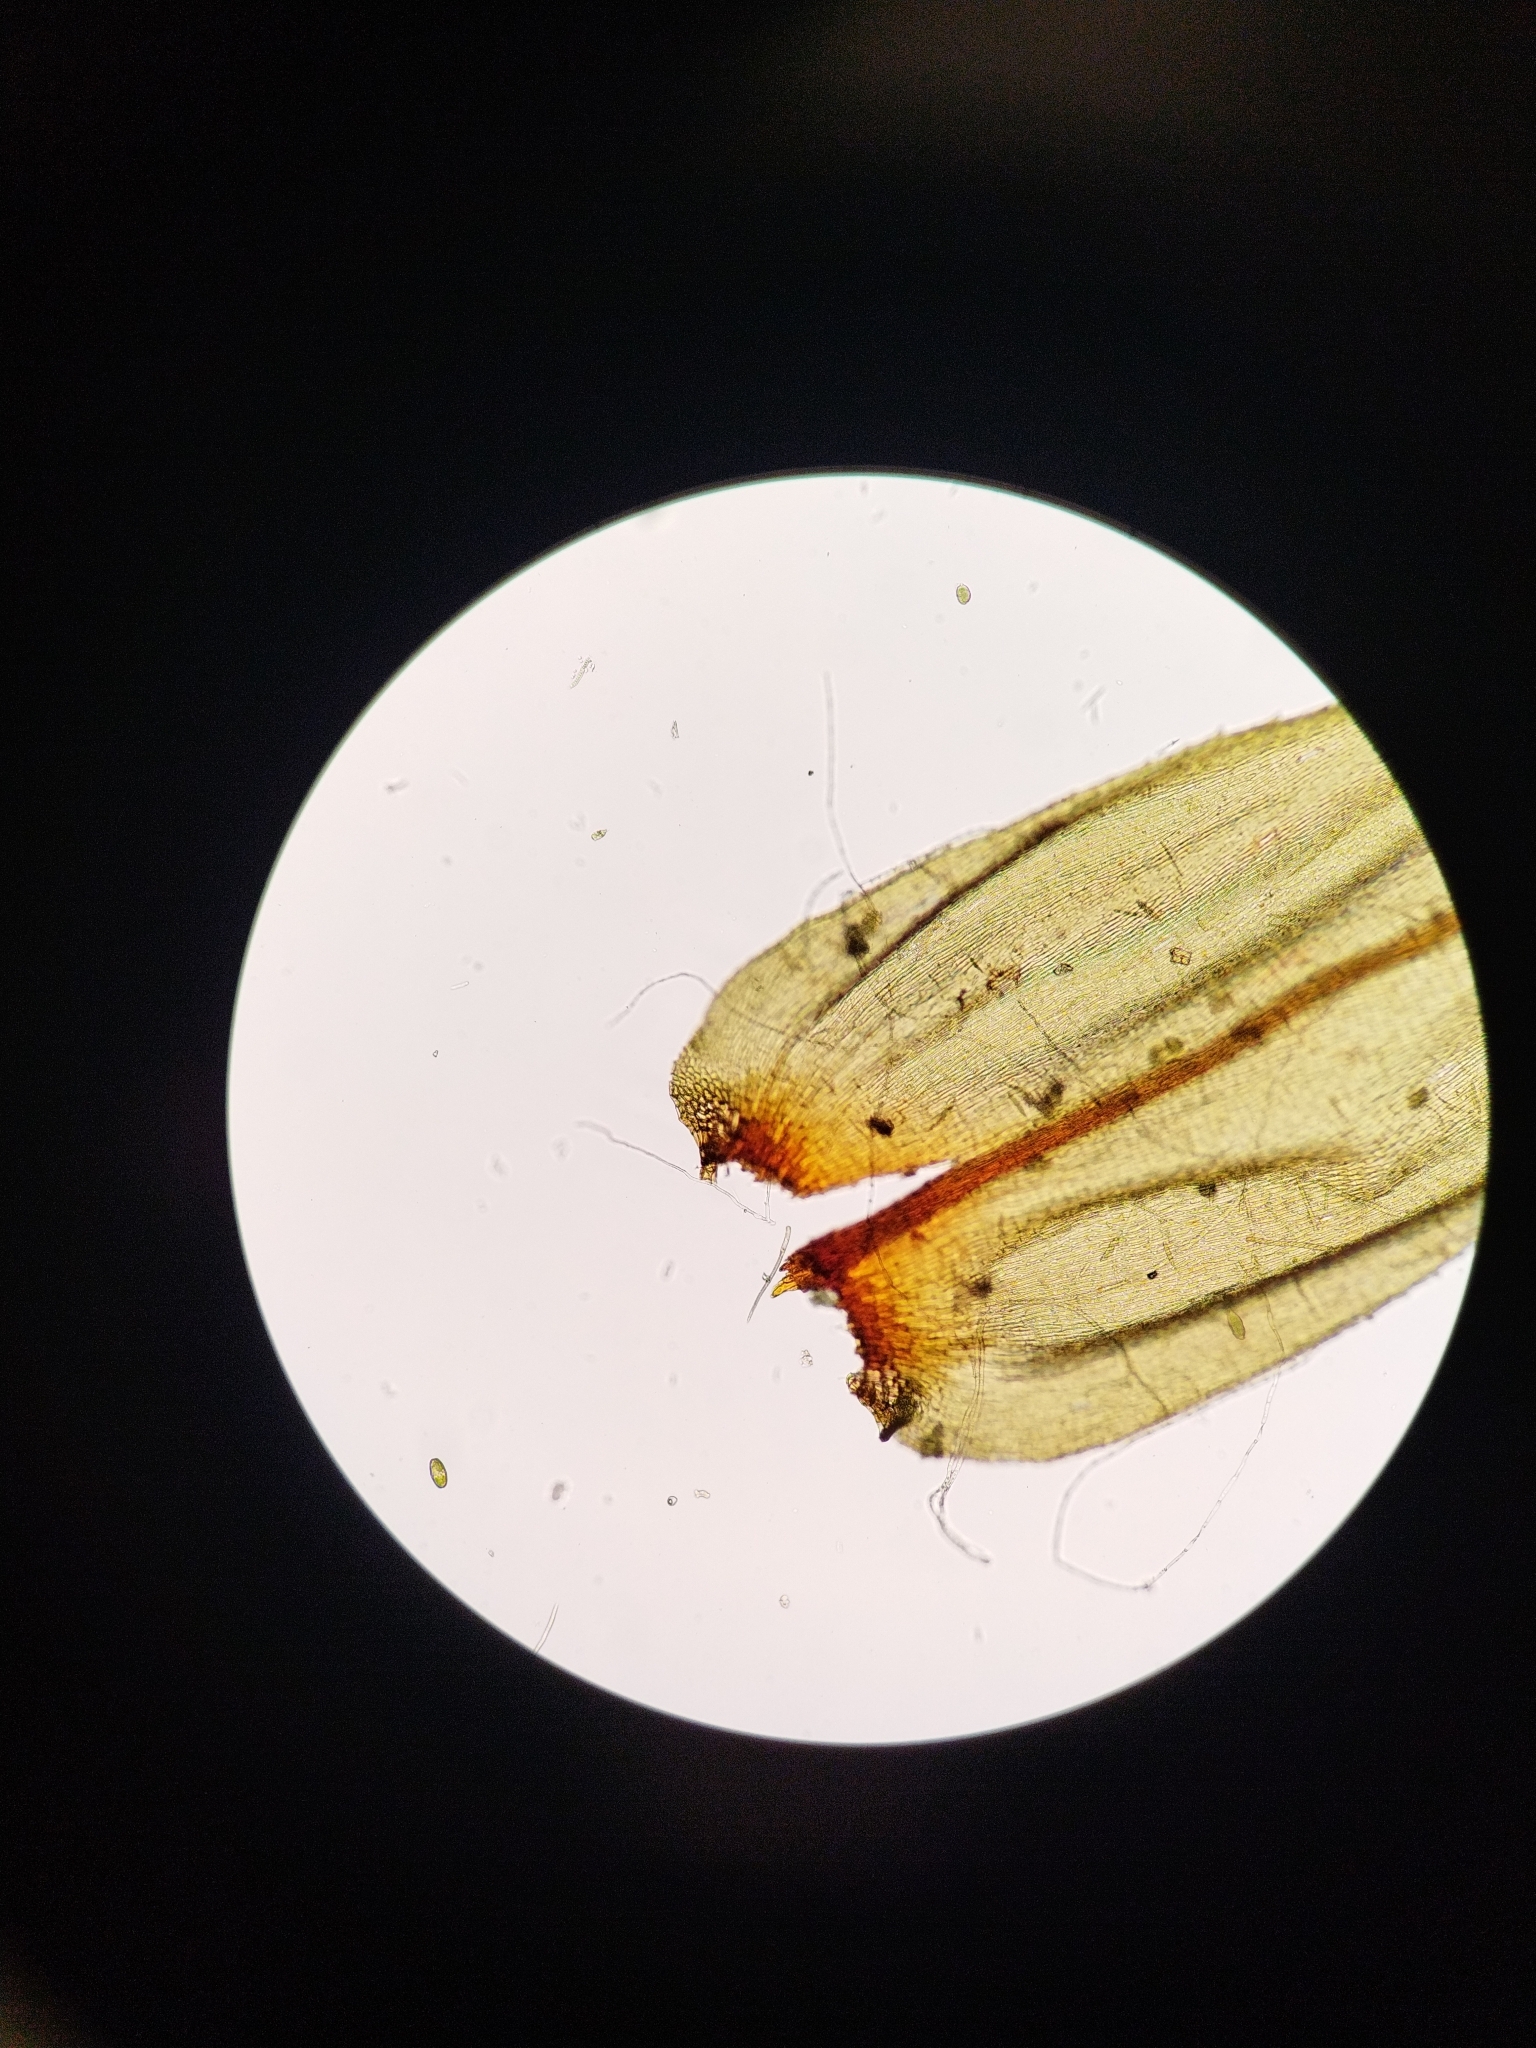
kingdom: Plantae
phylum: Bryophyta
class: Bryopsida
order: Hypnales
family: Climaciaceae
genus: Climacium
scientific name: Climacium dendroides
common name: Northern tree moss
